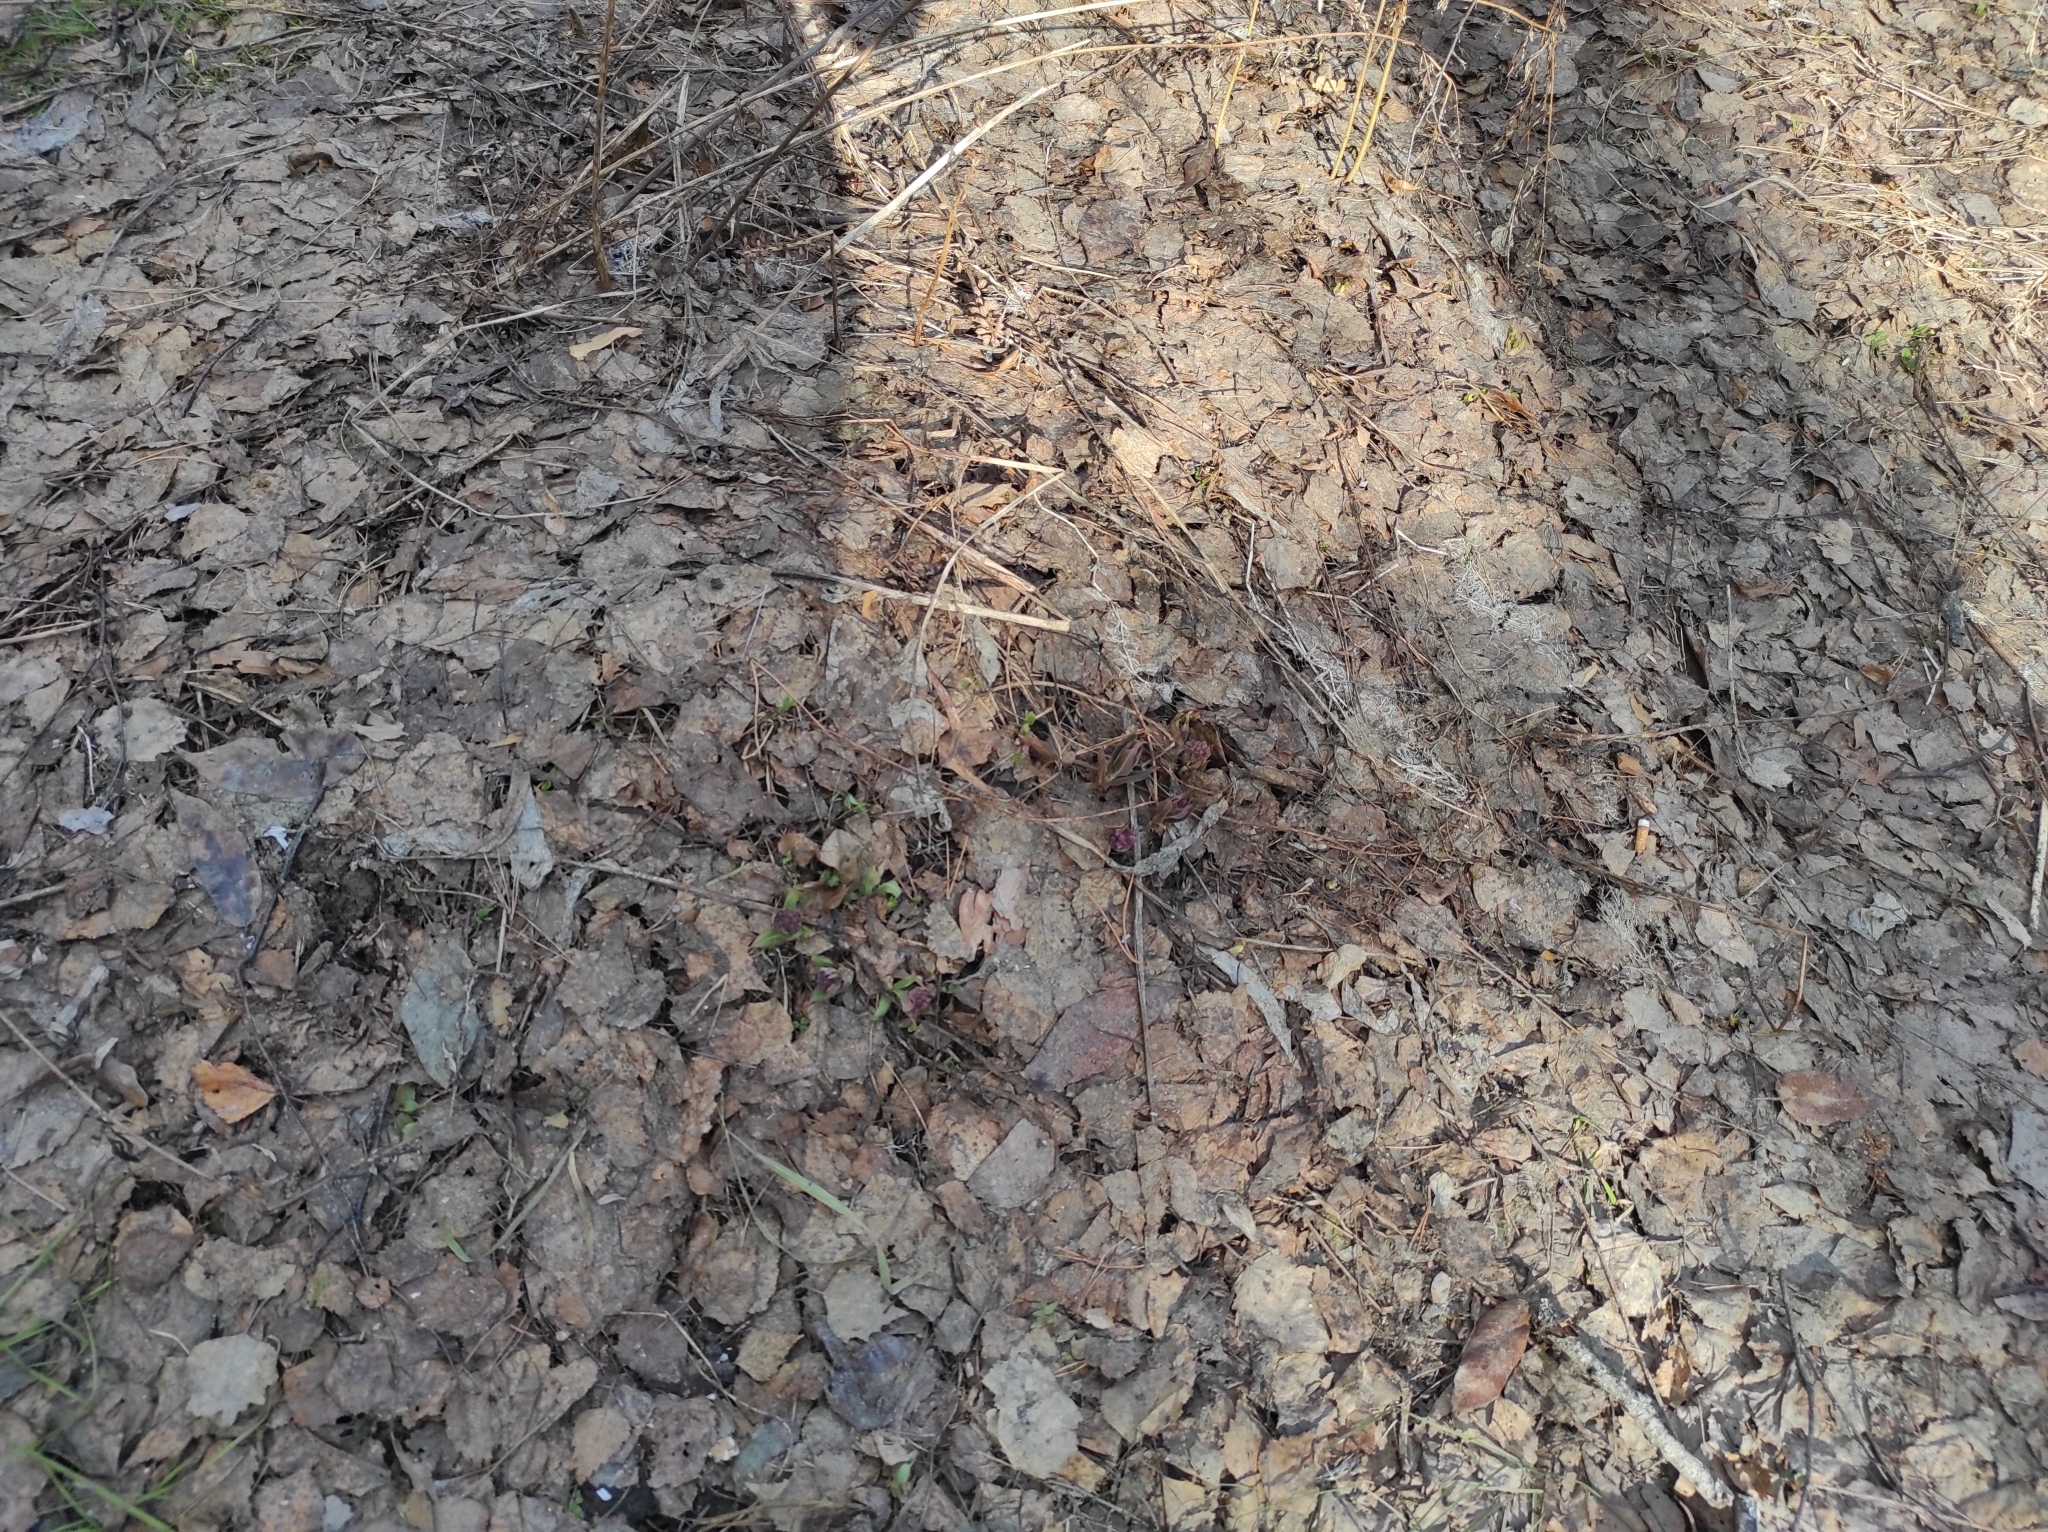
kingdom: Plantae
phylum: Tracheophyta
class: Magnoliopsida
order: Boraginales
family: Boraginaceae
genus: Pulmonaria
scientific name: Pulmonaria mollis
